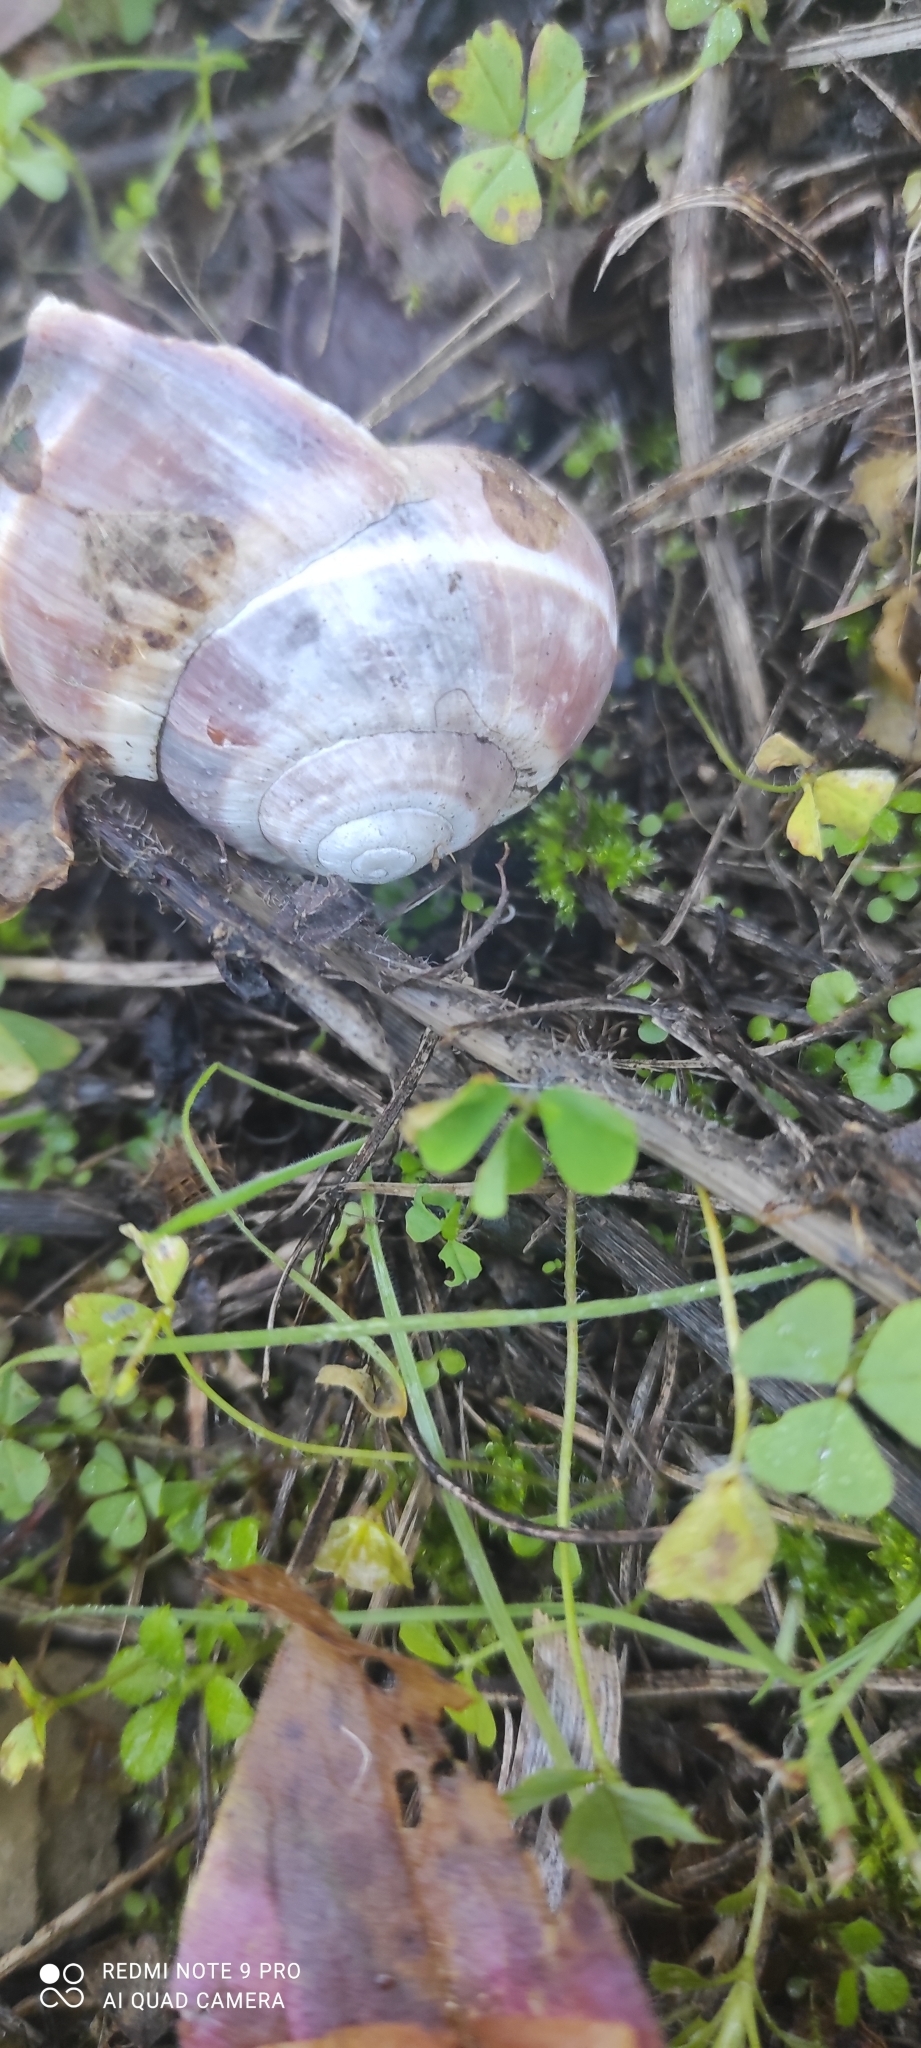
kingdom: Animalia
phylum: Mollusca
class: Gastropoda
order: Stylommatophora
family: Helicidae
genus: Helix
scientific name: Helix straminea
